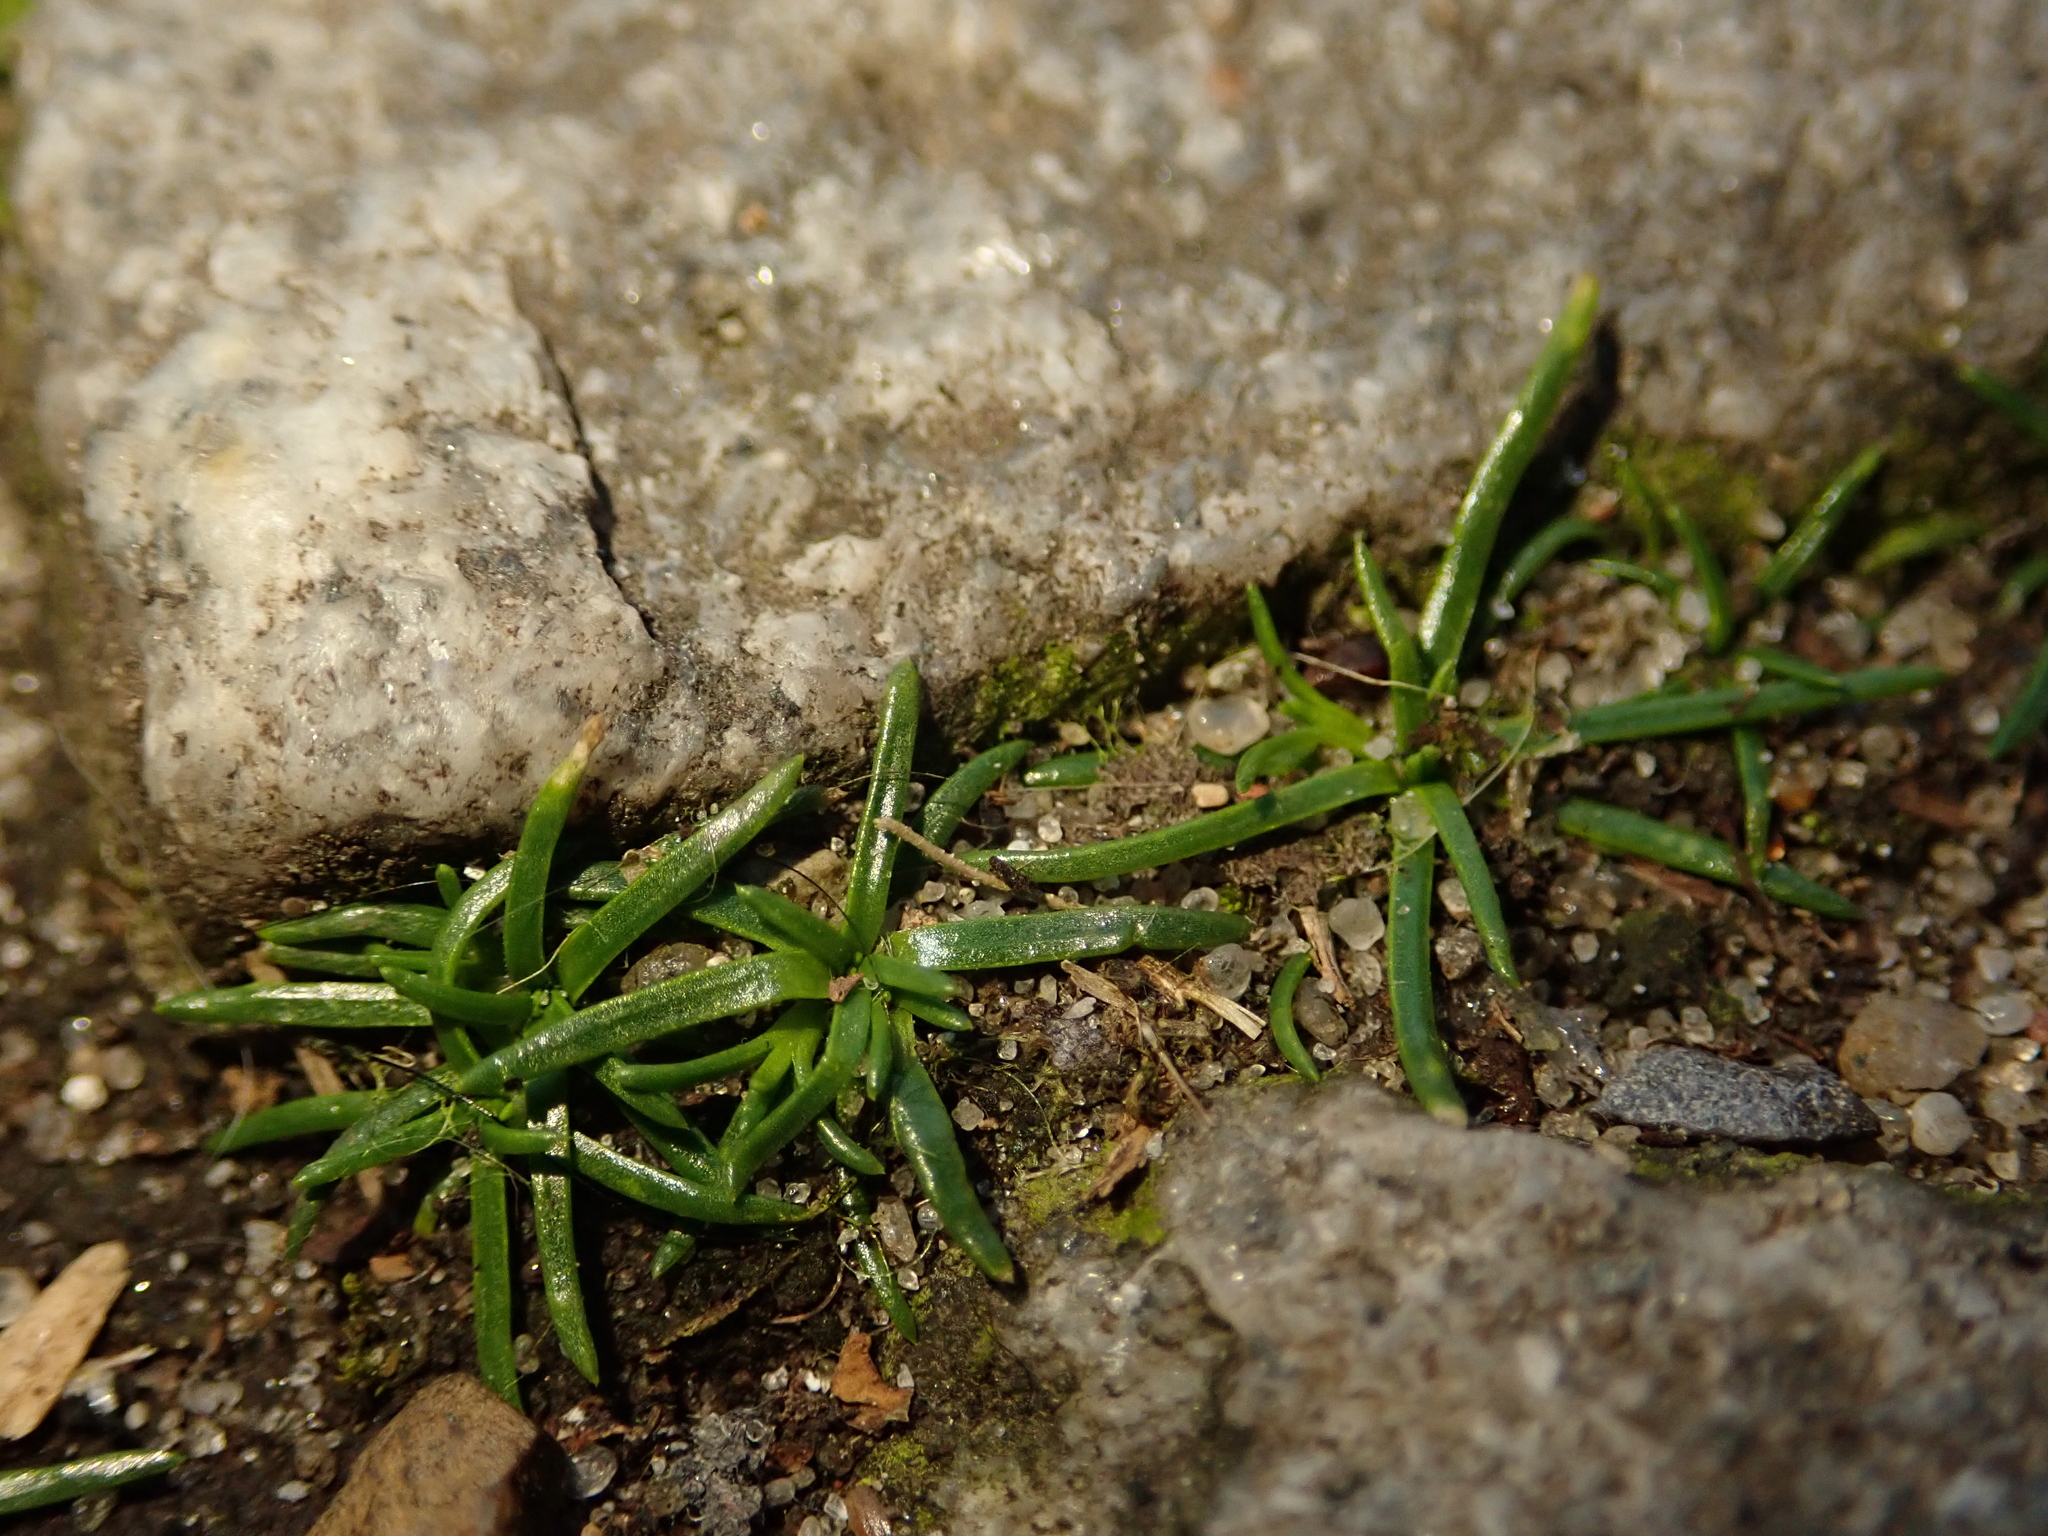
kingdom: Plantae
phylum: Tracheophyta
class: Magnoliopsida
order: Caryophyllales
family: Caryophyllaceae
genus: Sagina
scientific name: Sagina procumbens
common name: Procumbent pearlwort
